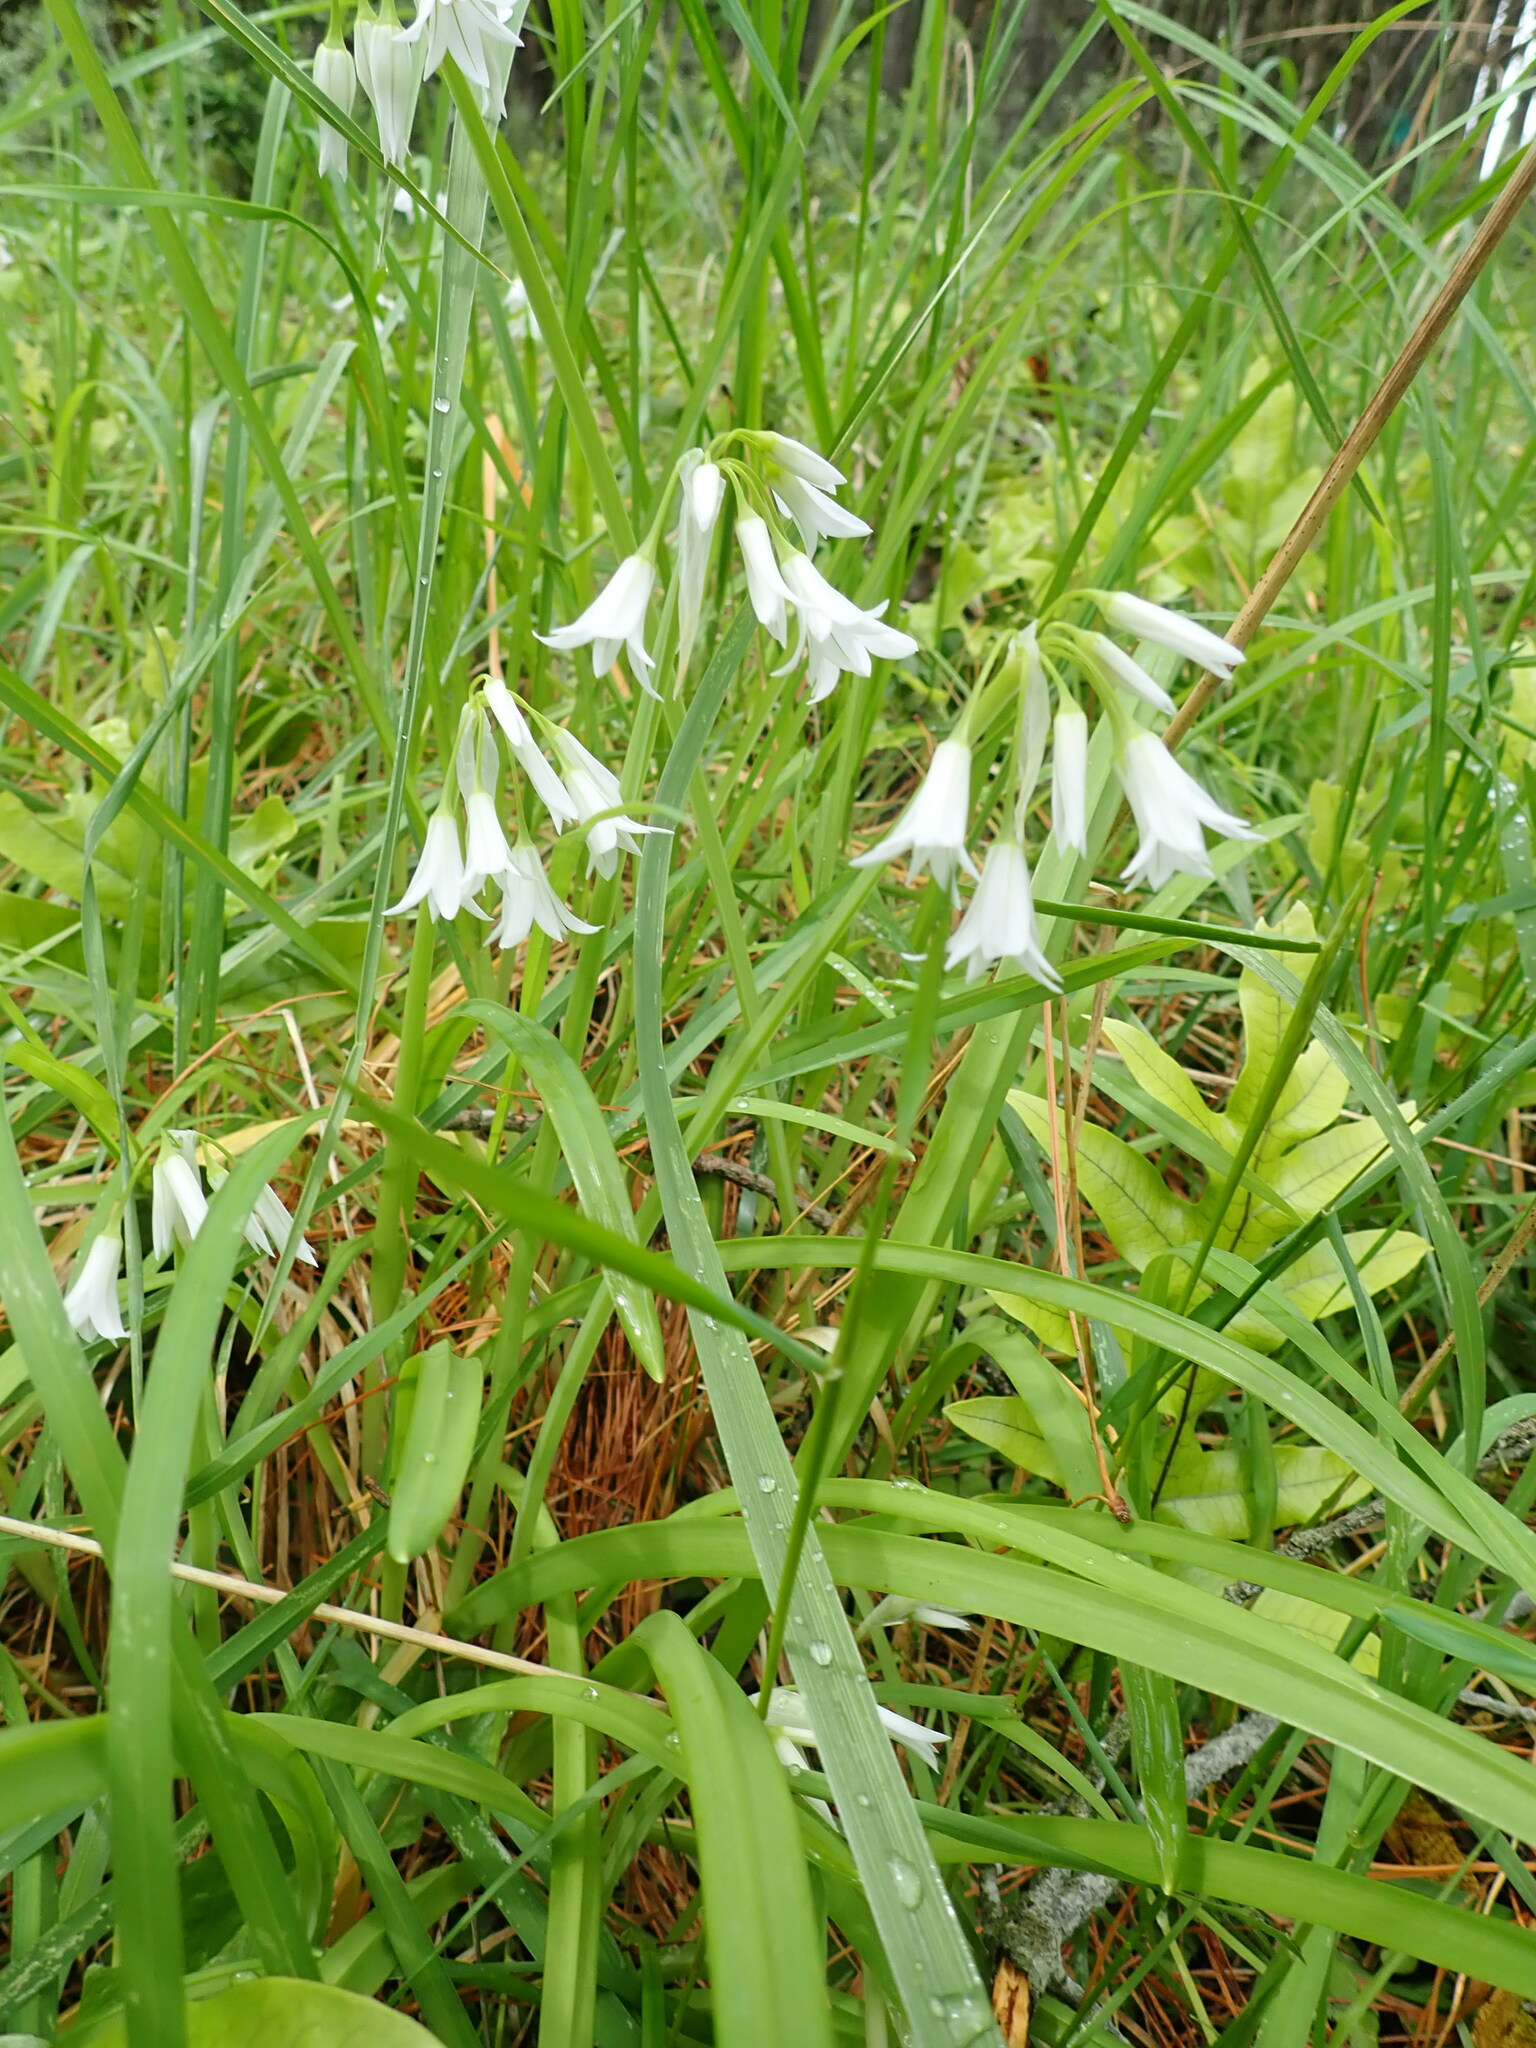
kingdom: Plantae
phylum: Tracheophyta
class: Liliopsida
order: Asparagales
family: Amaryllidaceae
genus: Allium
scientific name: Allium triquetrum
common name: Three-cornered garlic
